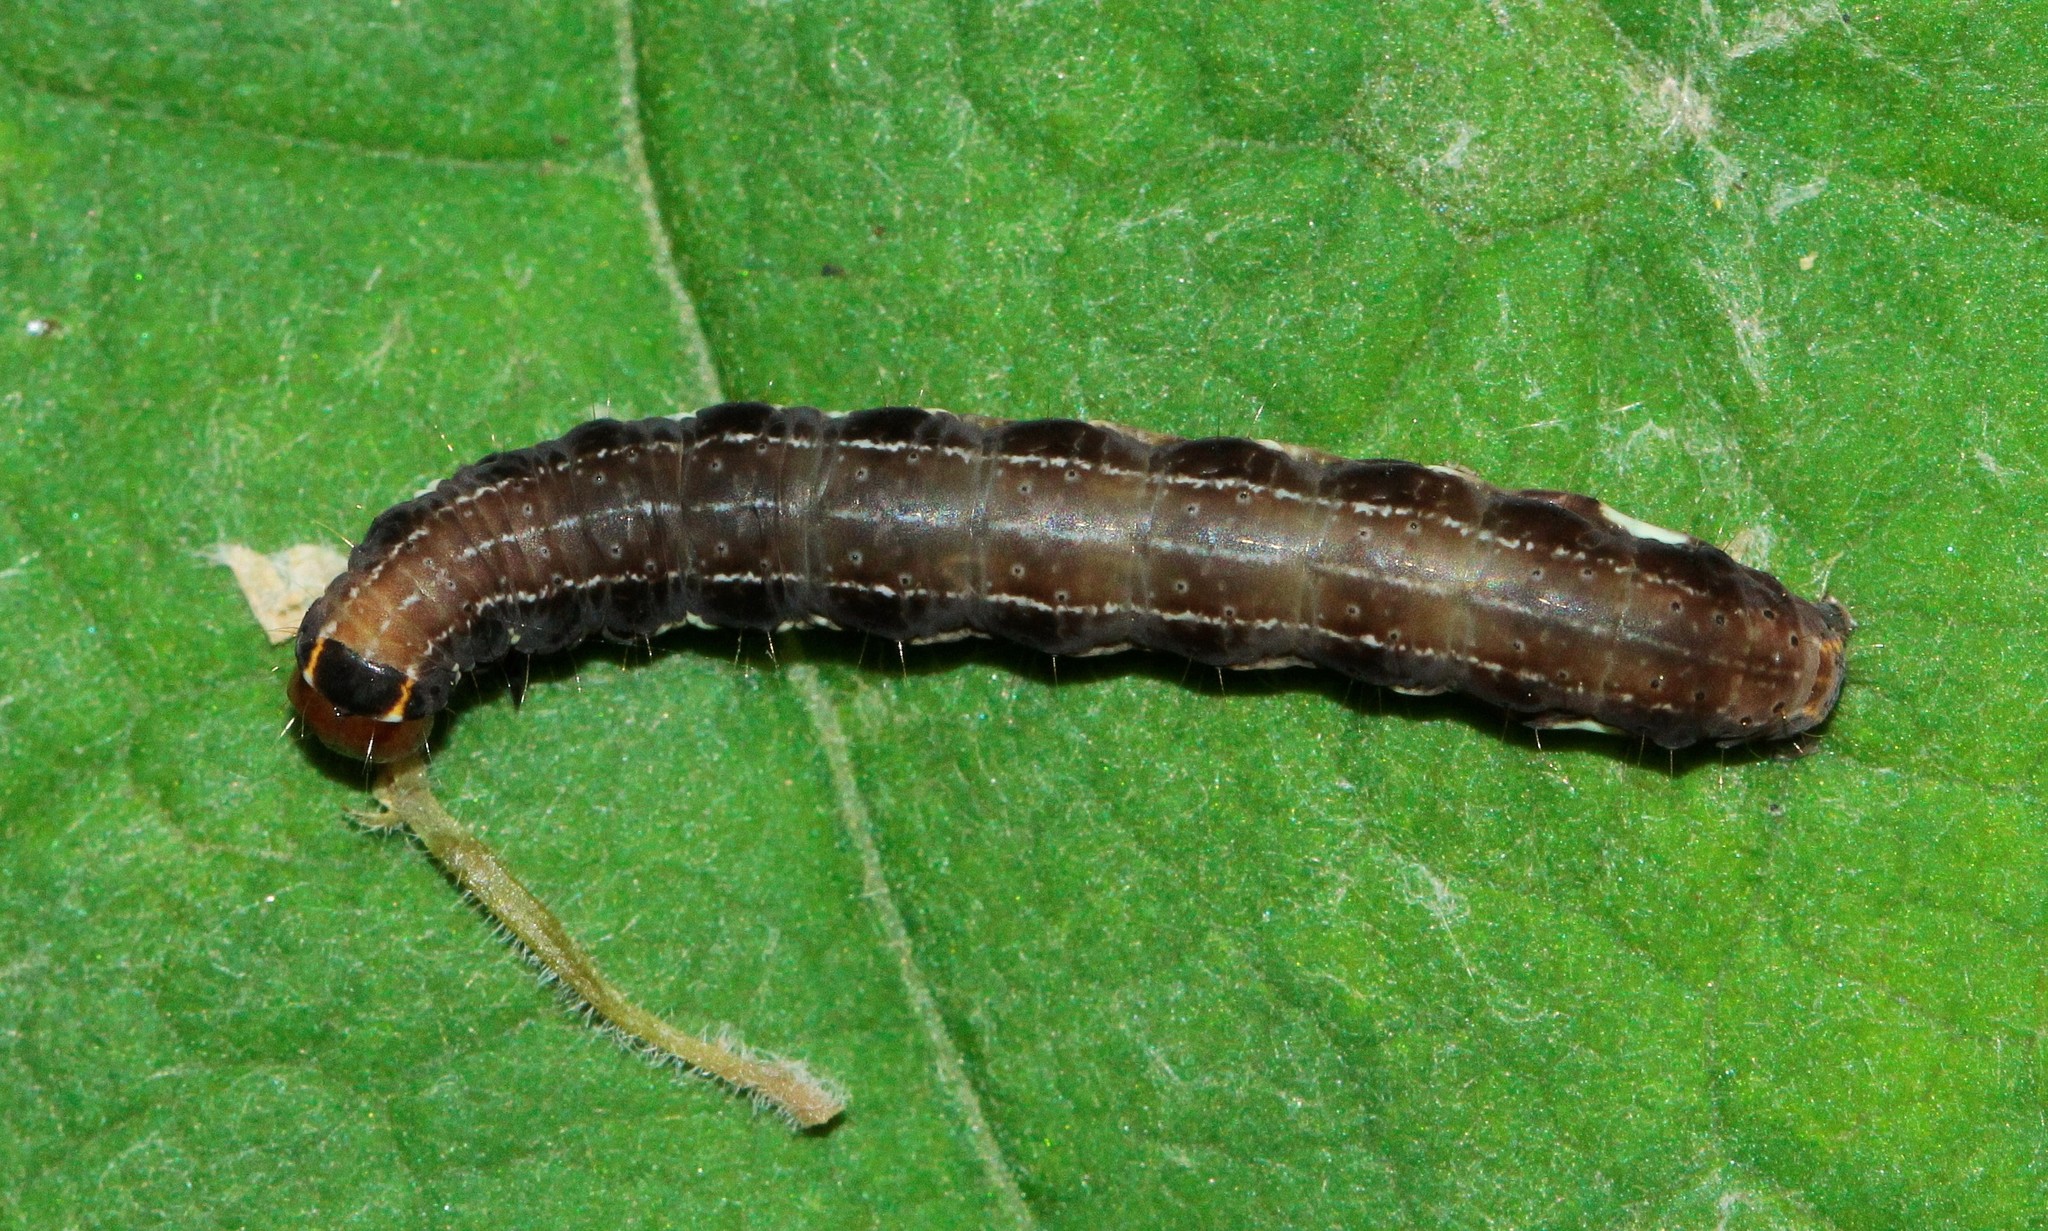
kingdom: Animalia
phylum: Arthropoda
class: Insecta
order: Lepidoptera
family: Noctuidae
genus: Eupsilia
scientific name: Eupsilia transversa
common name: Satellite
